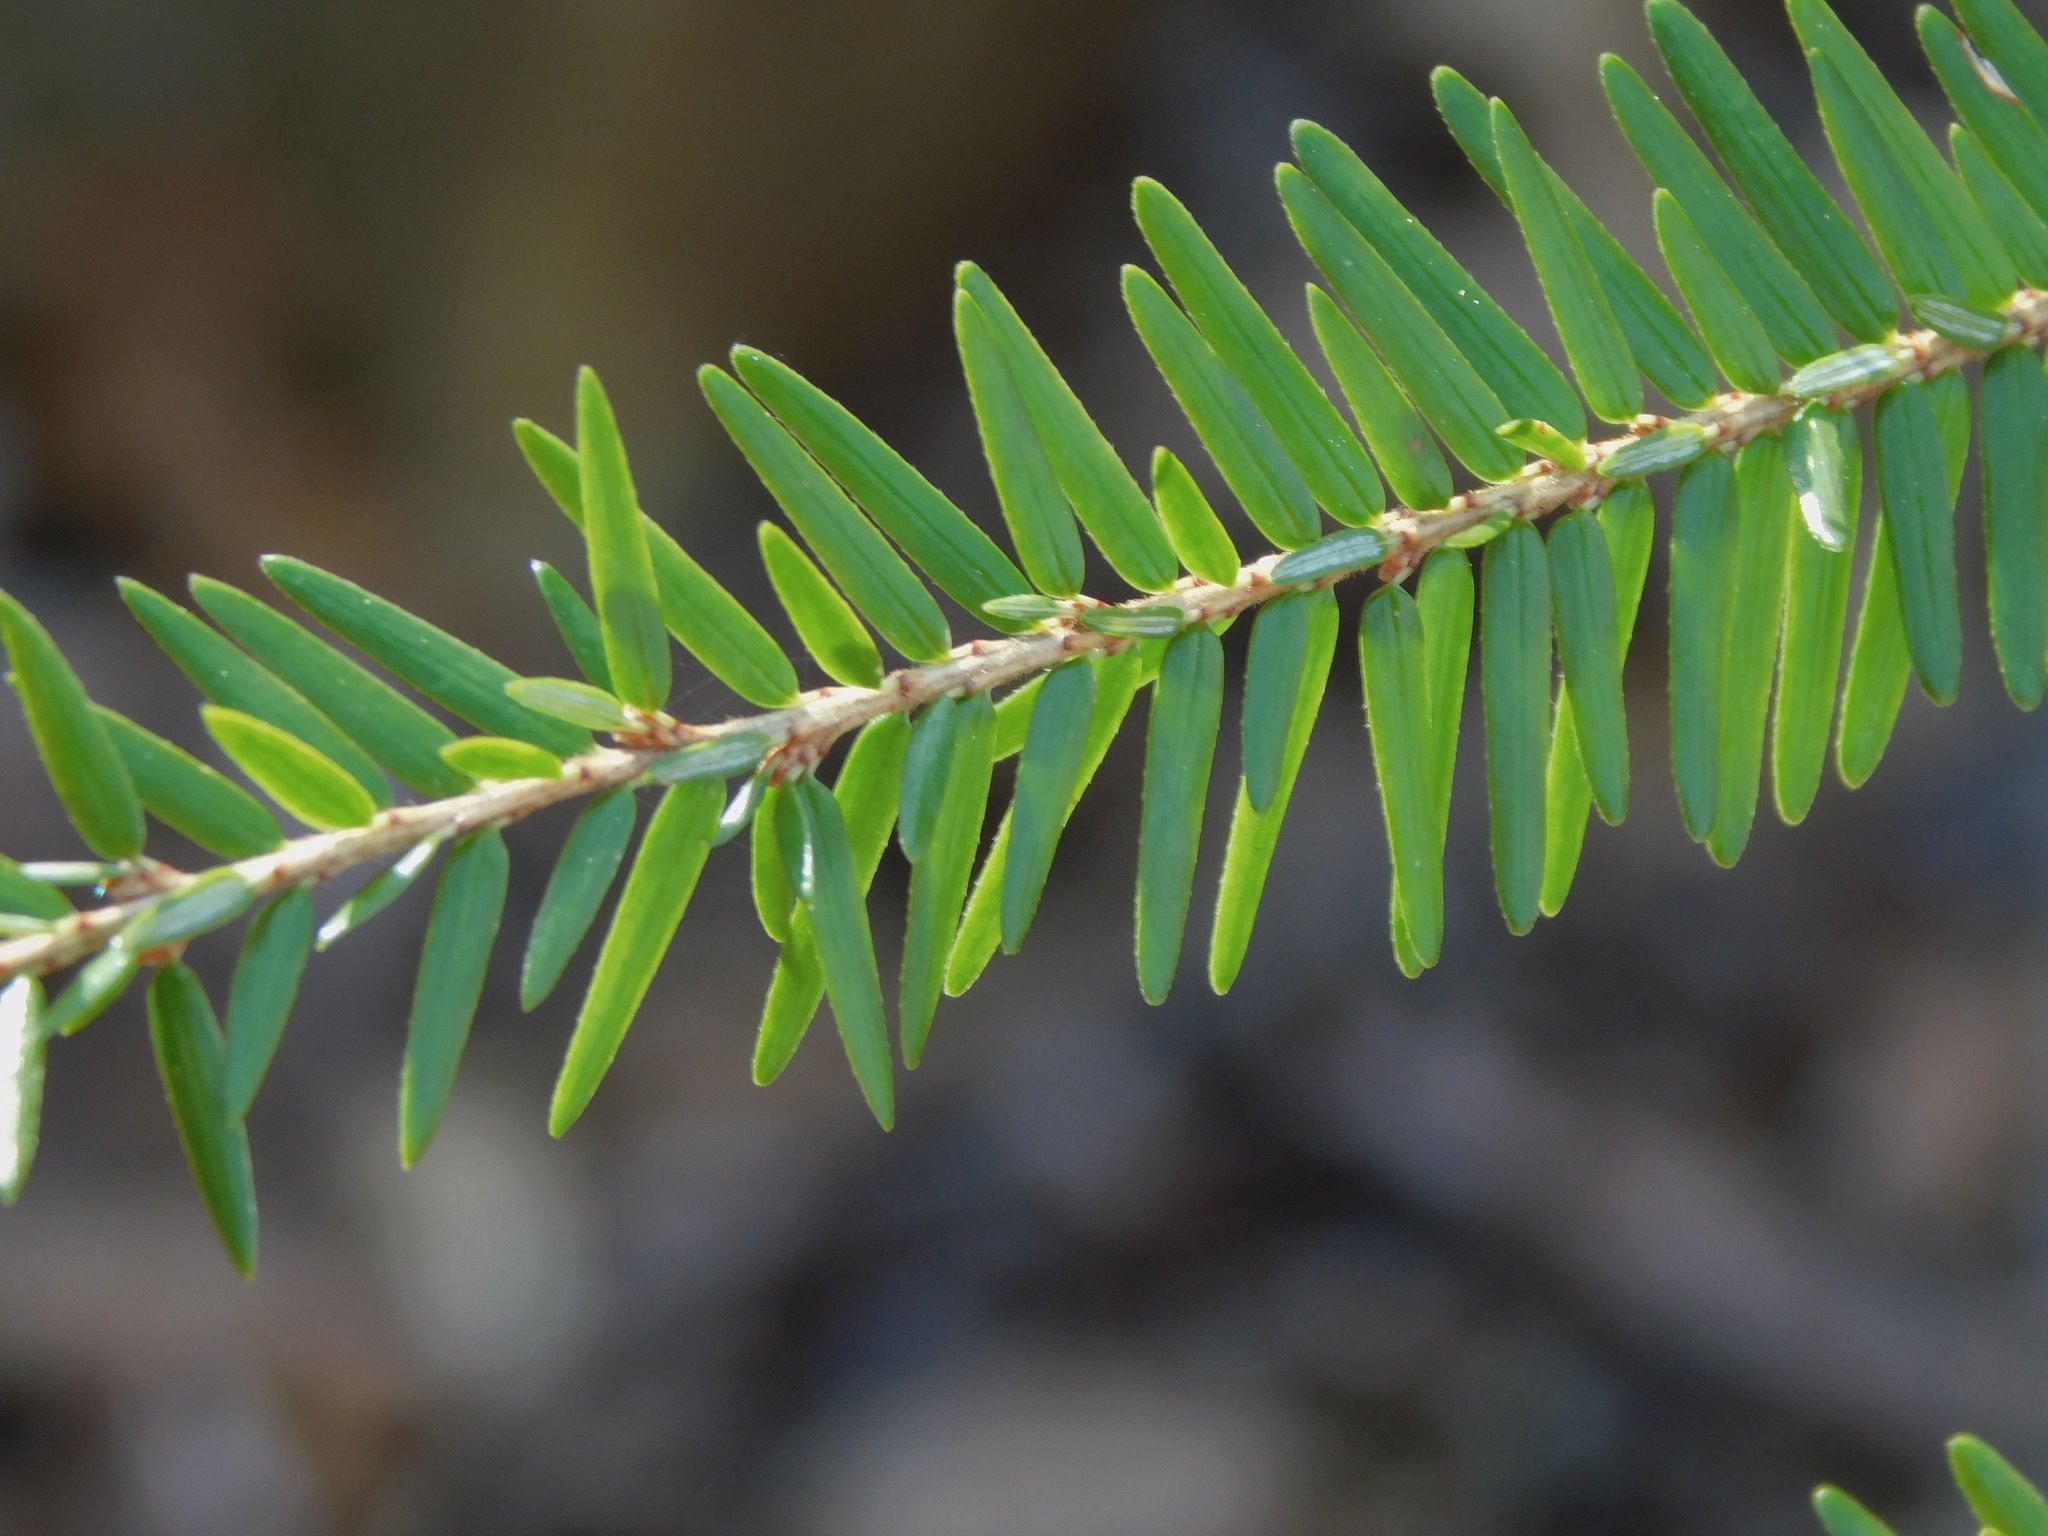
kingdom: Plantae
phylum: Tracheophyta
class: Pinopsida
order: Pinales
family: Pinaceae
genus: Tsuga
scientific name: Tsuga canadensis
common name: Eastern hemlock
